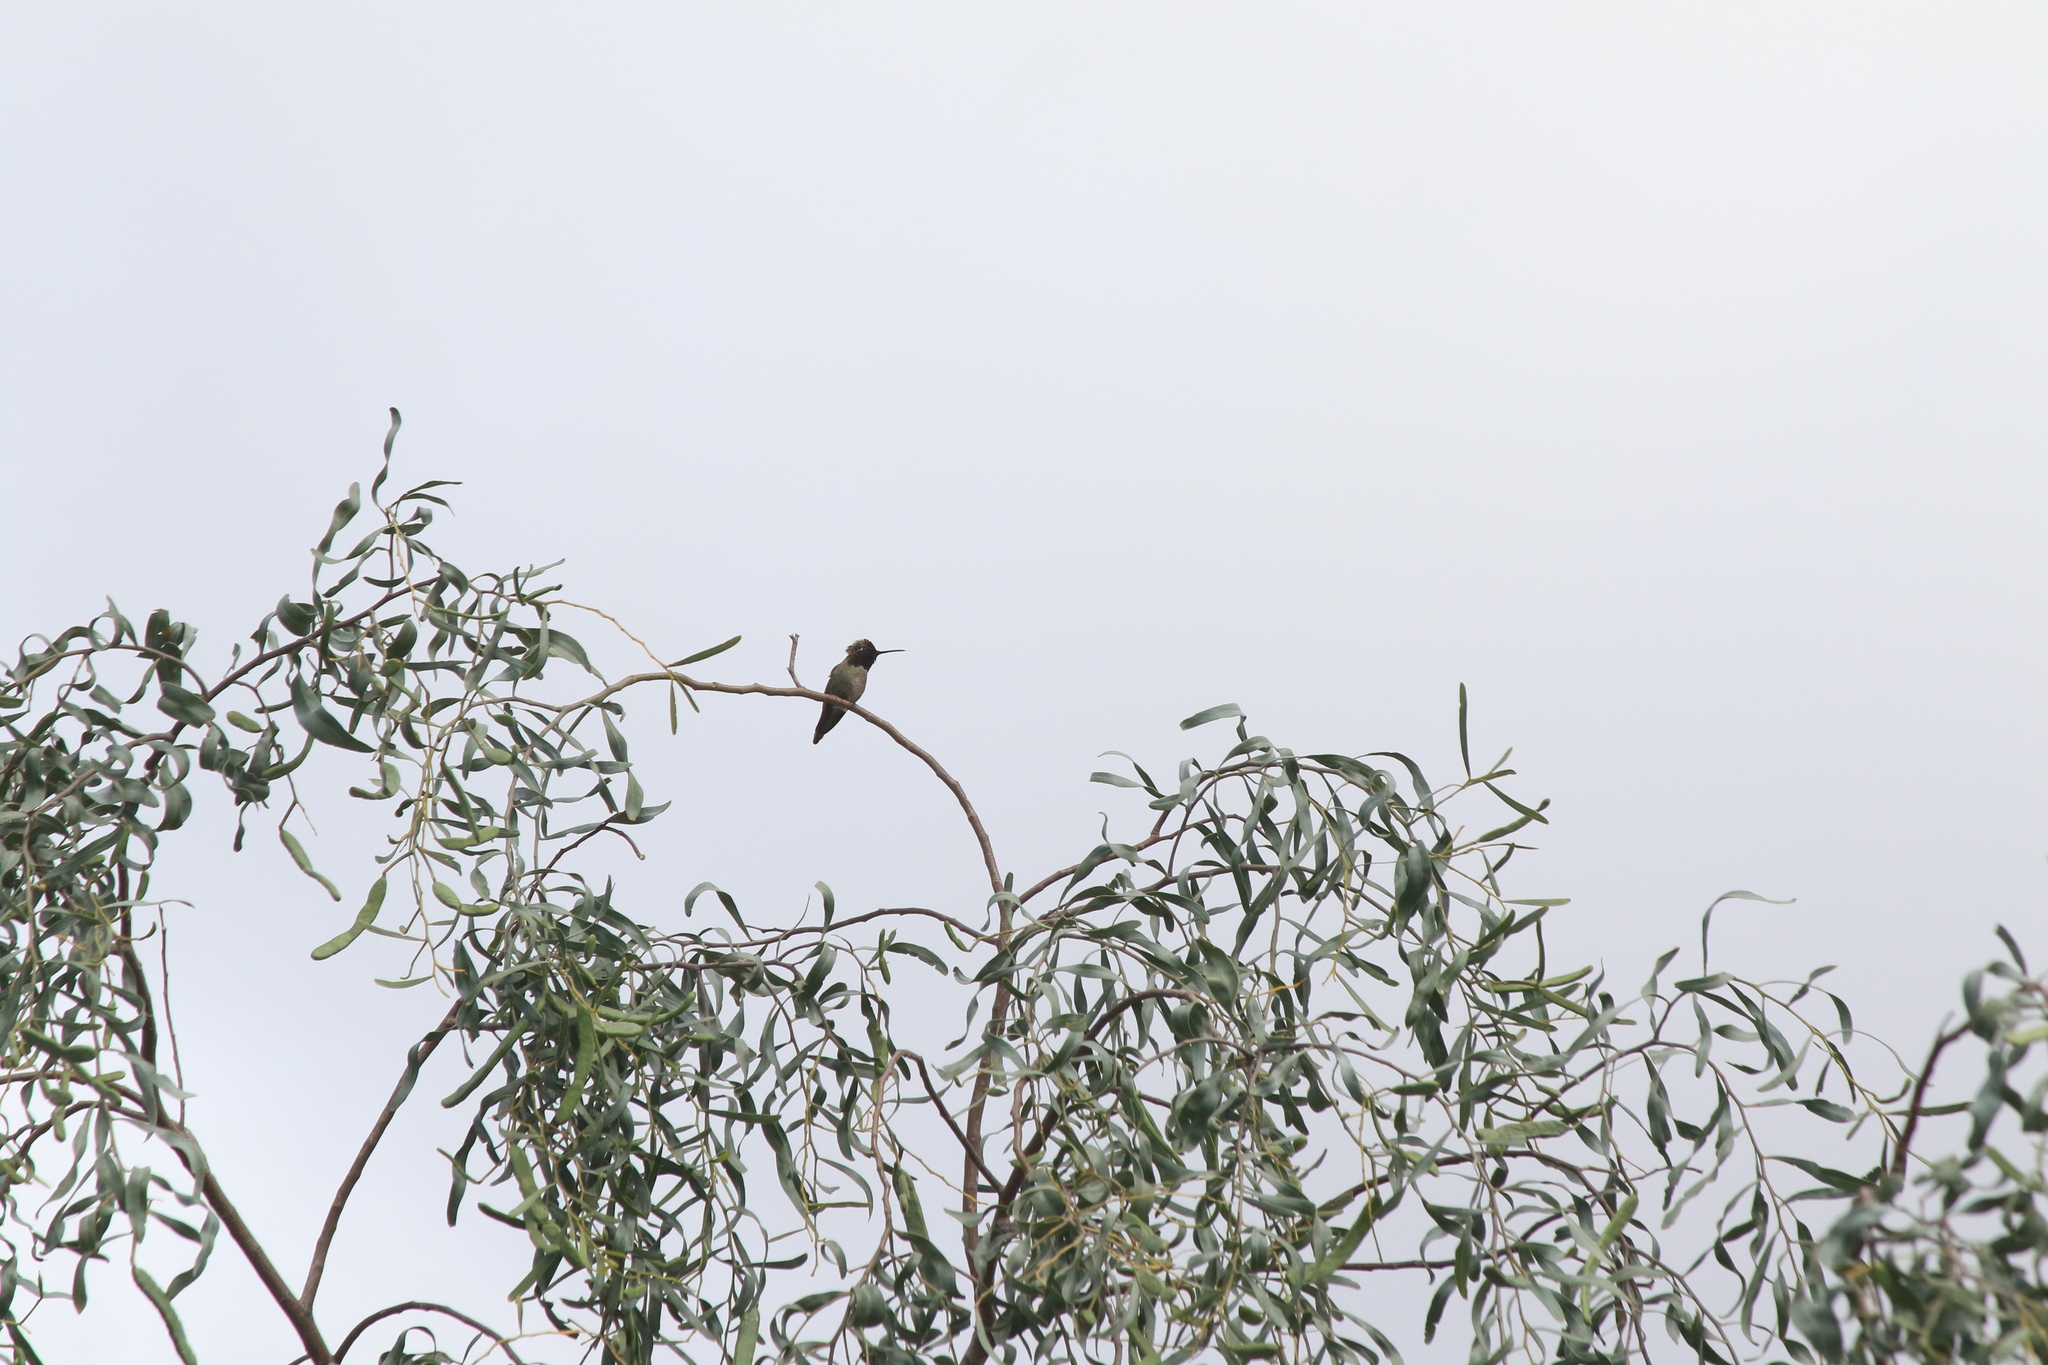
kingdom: Animalia
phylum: Chordata
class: Aves
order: Apodiformes
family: Trochilidae
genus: Calypte
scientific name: Calypte anna
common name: Anna's hummingbird
